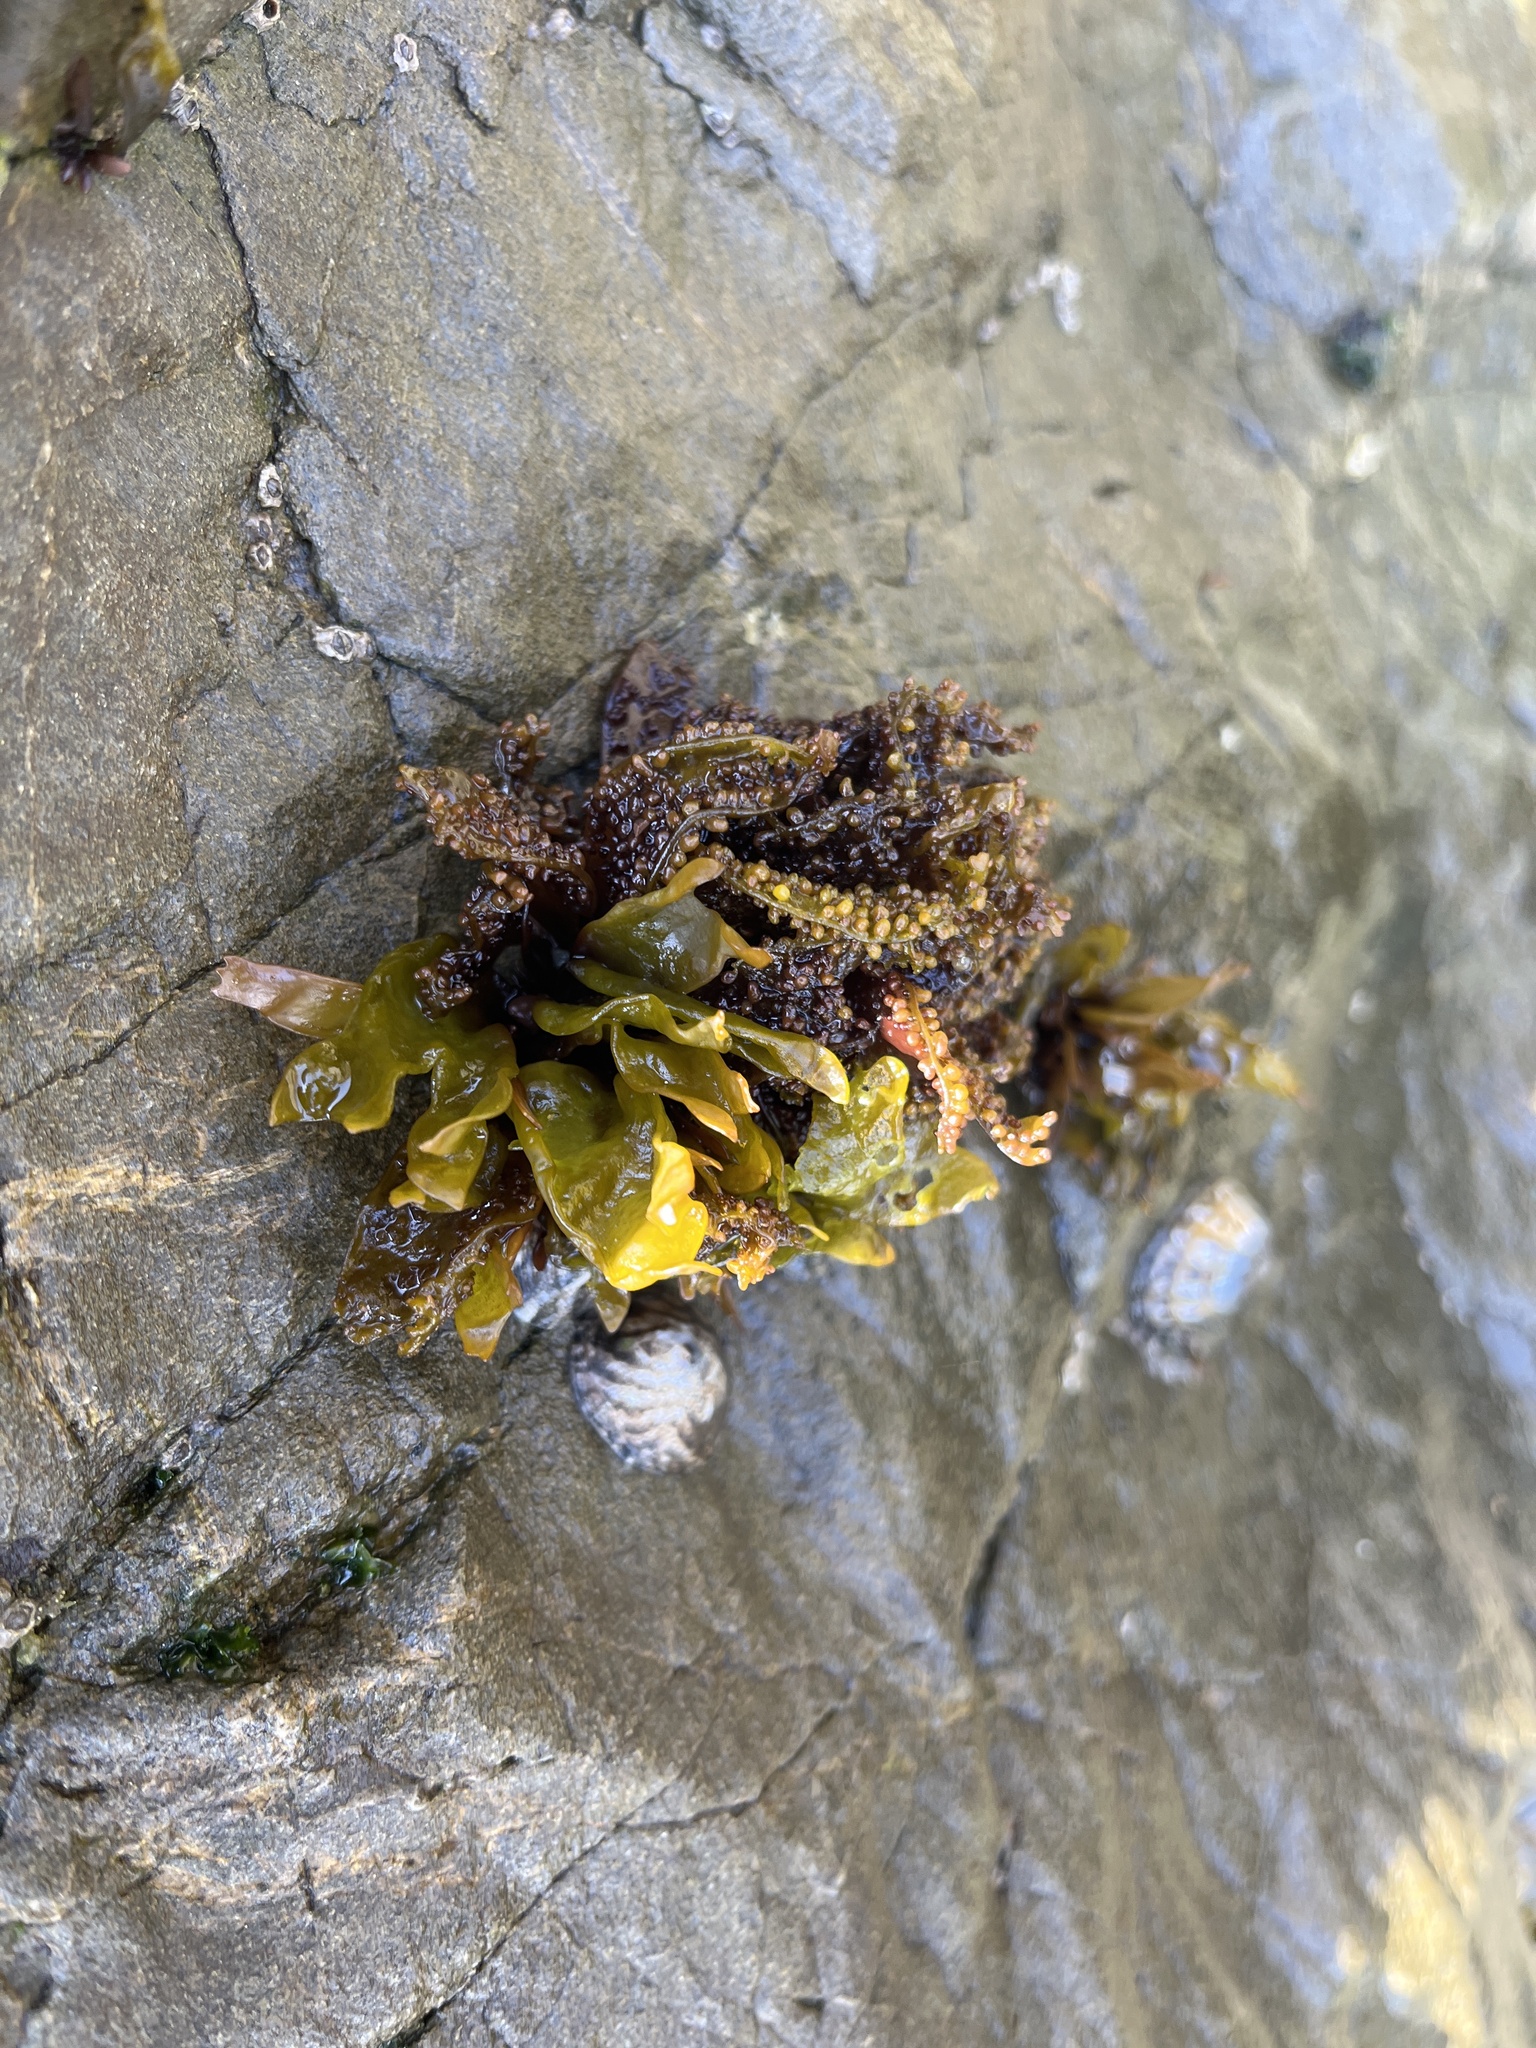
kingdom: Plantae
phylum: Rhodophyta
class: Florideophyceae
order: Gigartinales
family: Phyllophoraceae
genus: Mastocarpus
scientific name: Mastocarpus papillatus
